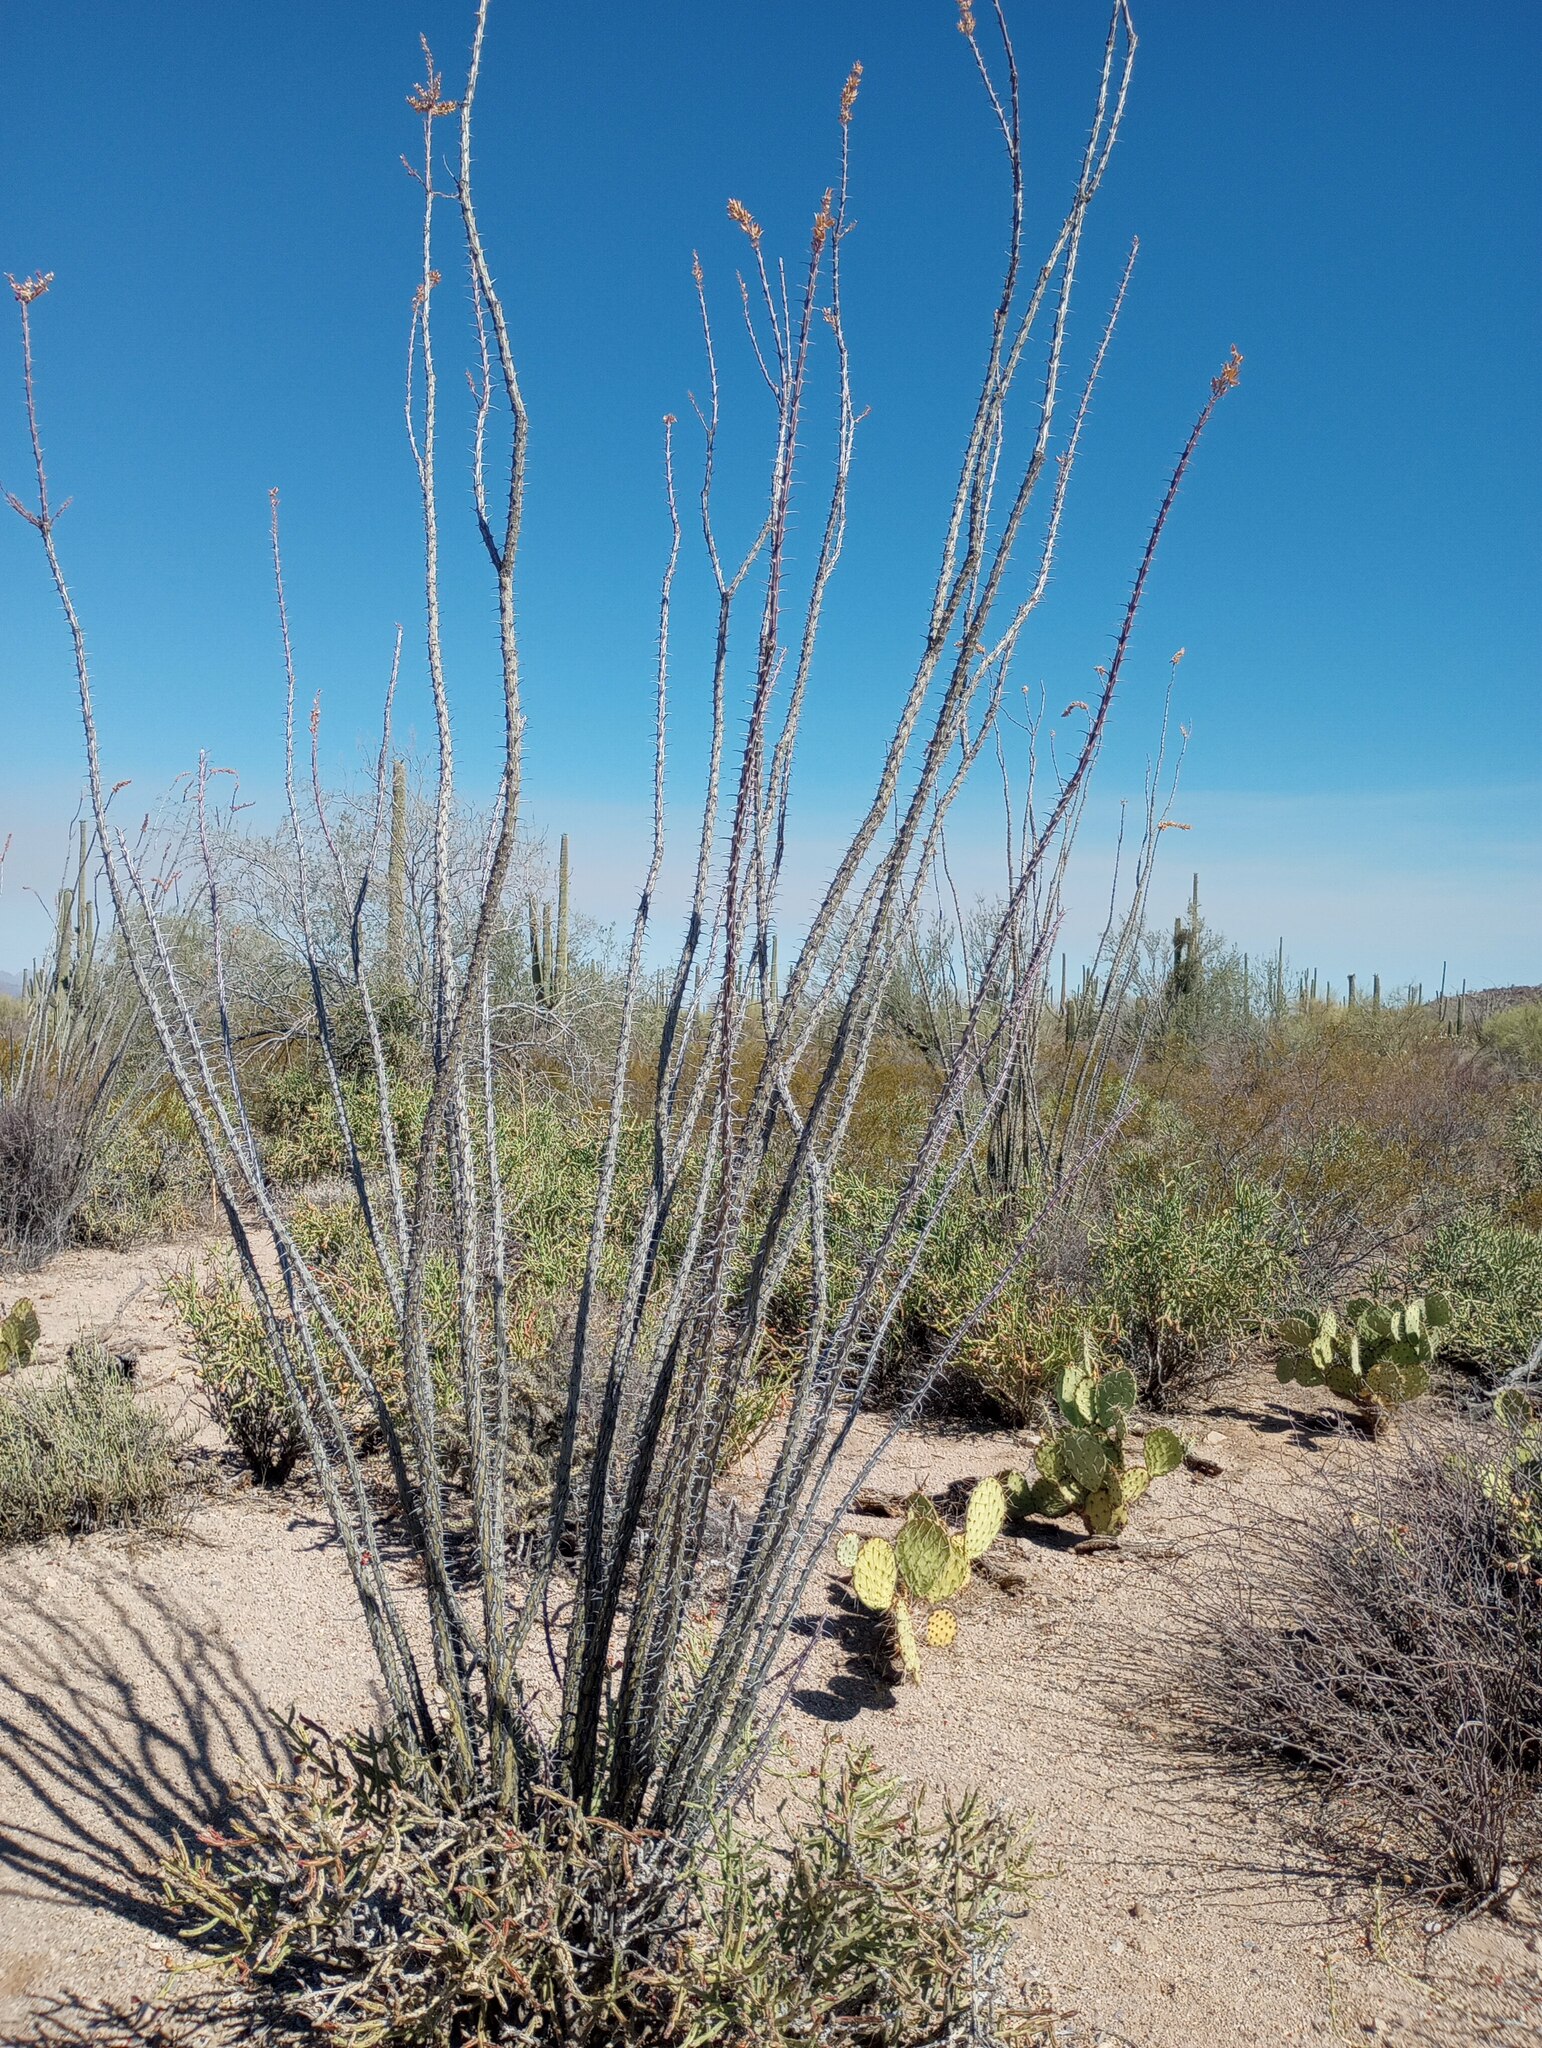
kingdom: Plantae
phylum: Tracheophyta
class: Magnoliopsida
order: Ericales
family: Fouquieriaceae
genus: Fouquieria
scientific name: Fouquieria splendens
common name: Vine-cactus
